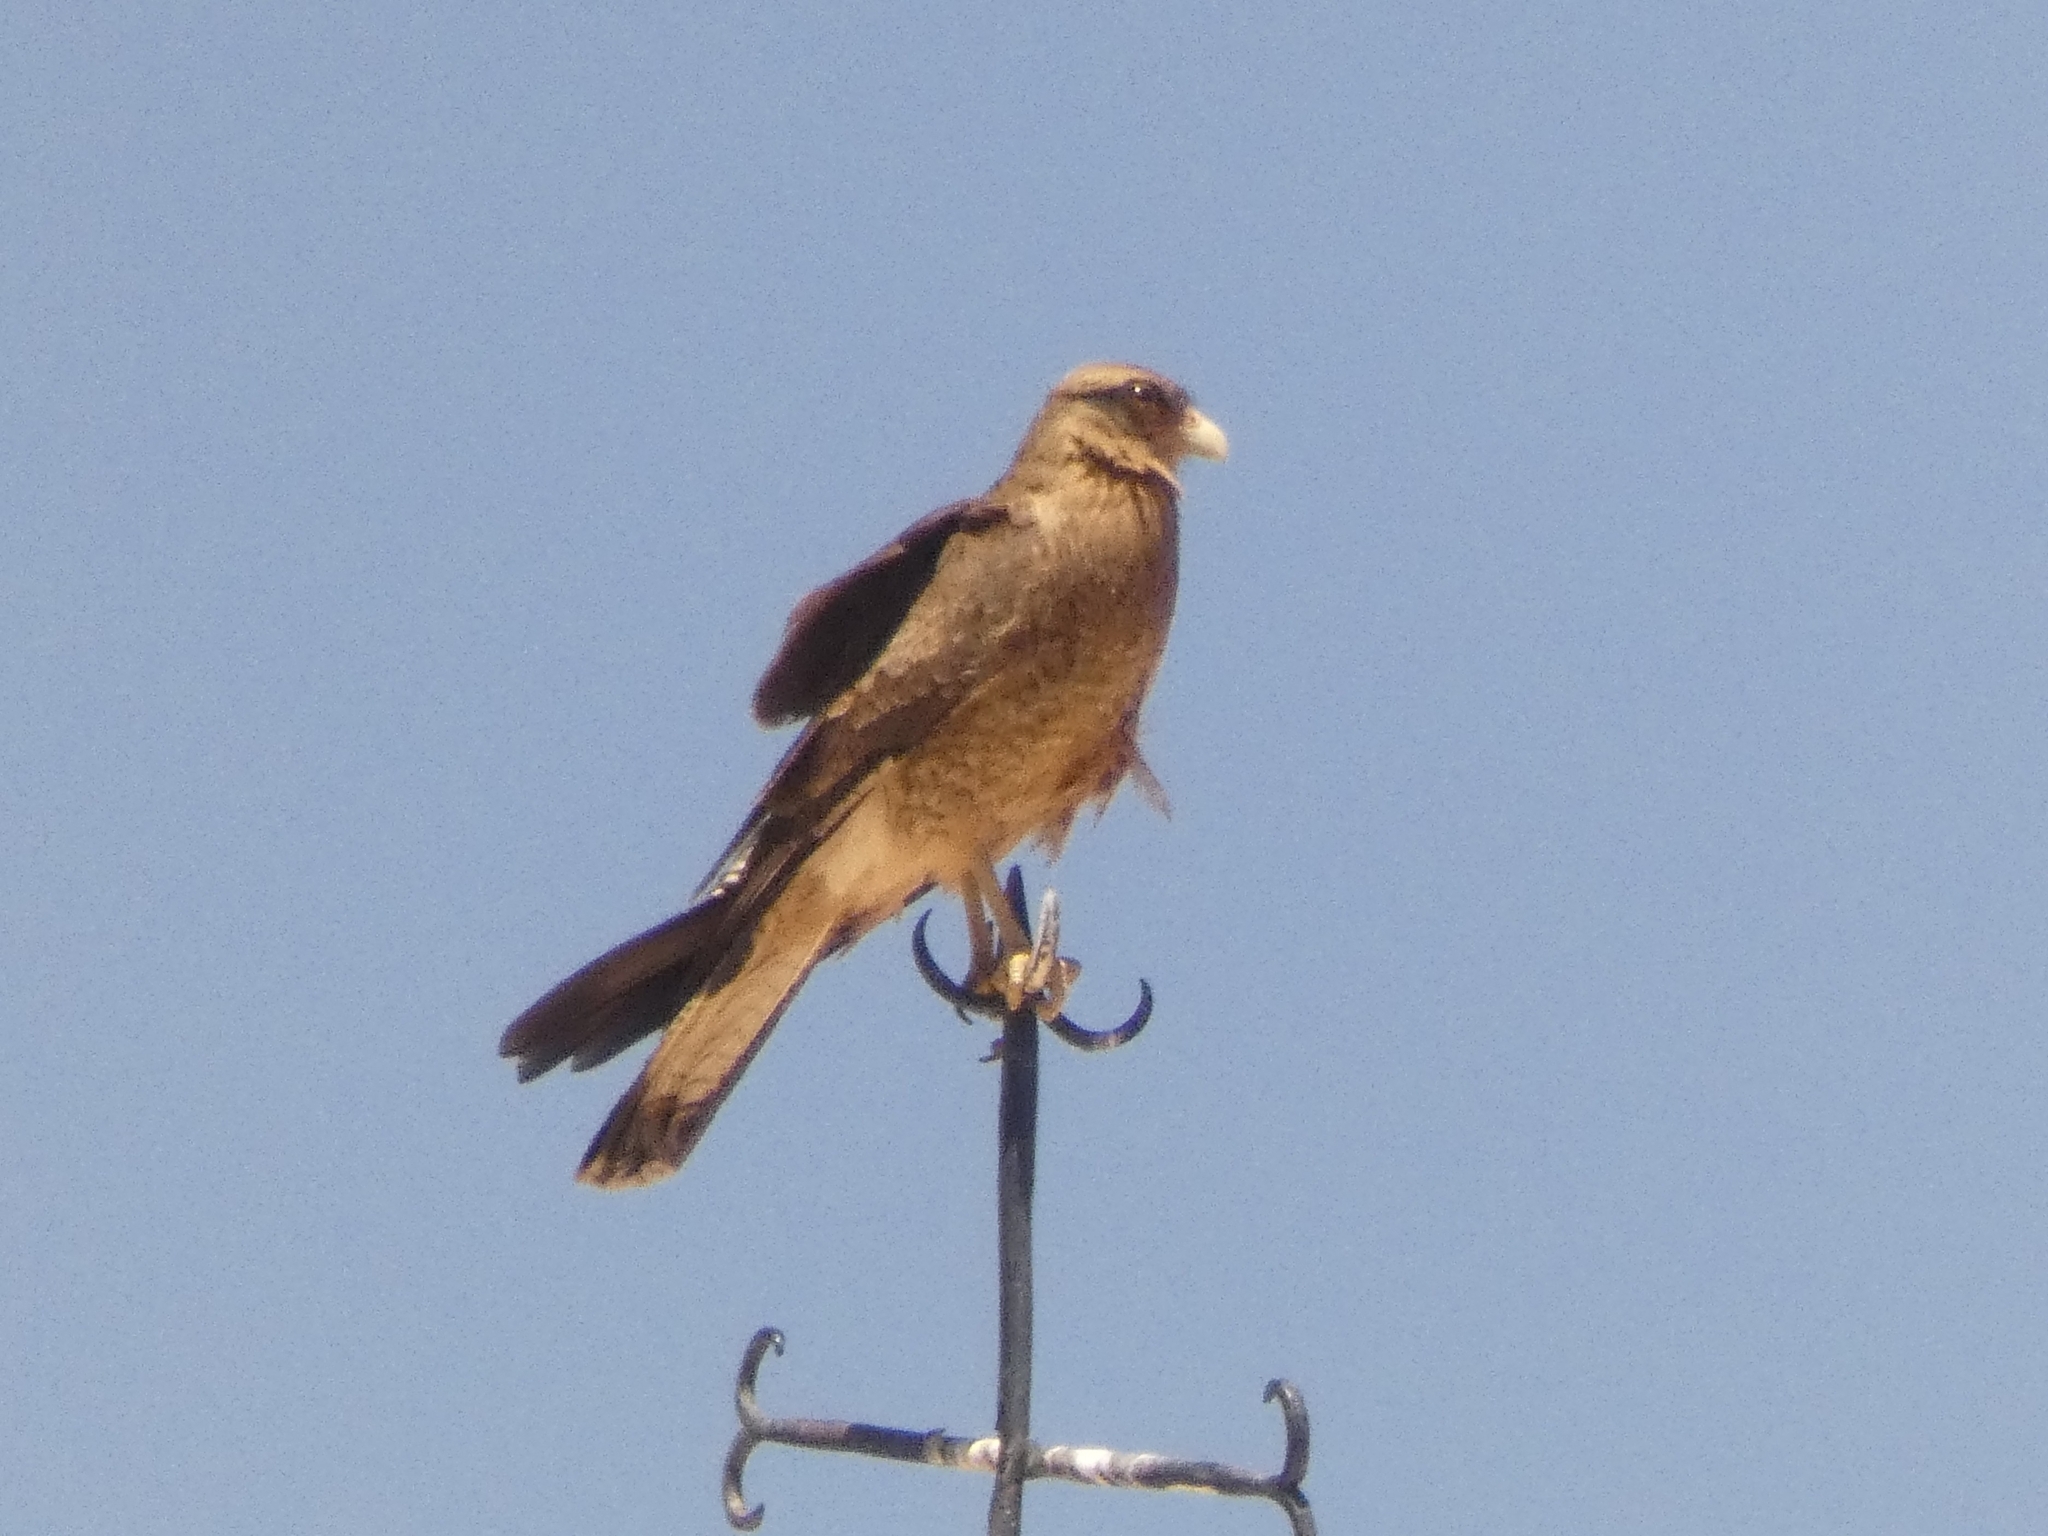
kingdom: Animalia
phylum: Chordata
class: Aves
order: Falconiformes
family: Falconidae
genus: Daptrius
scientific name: Daptrius
